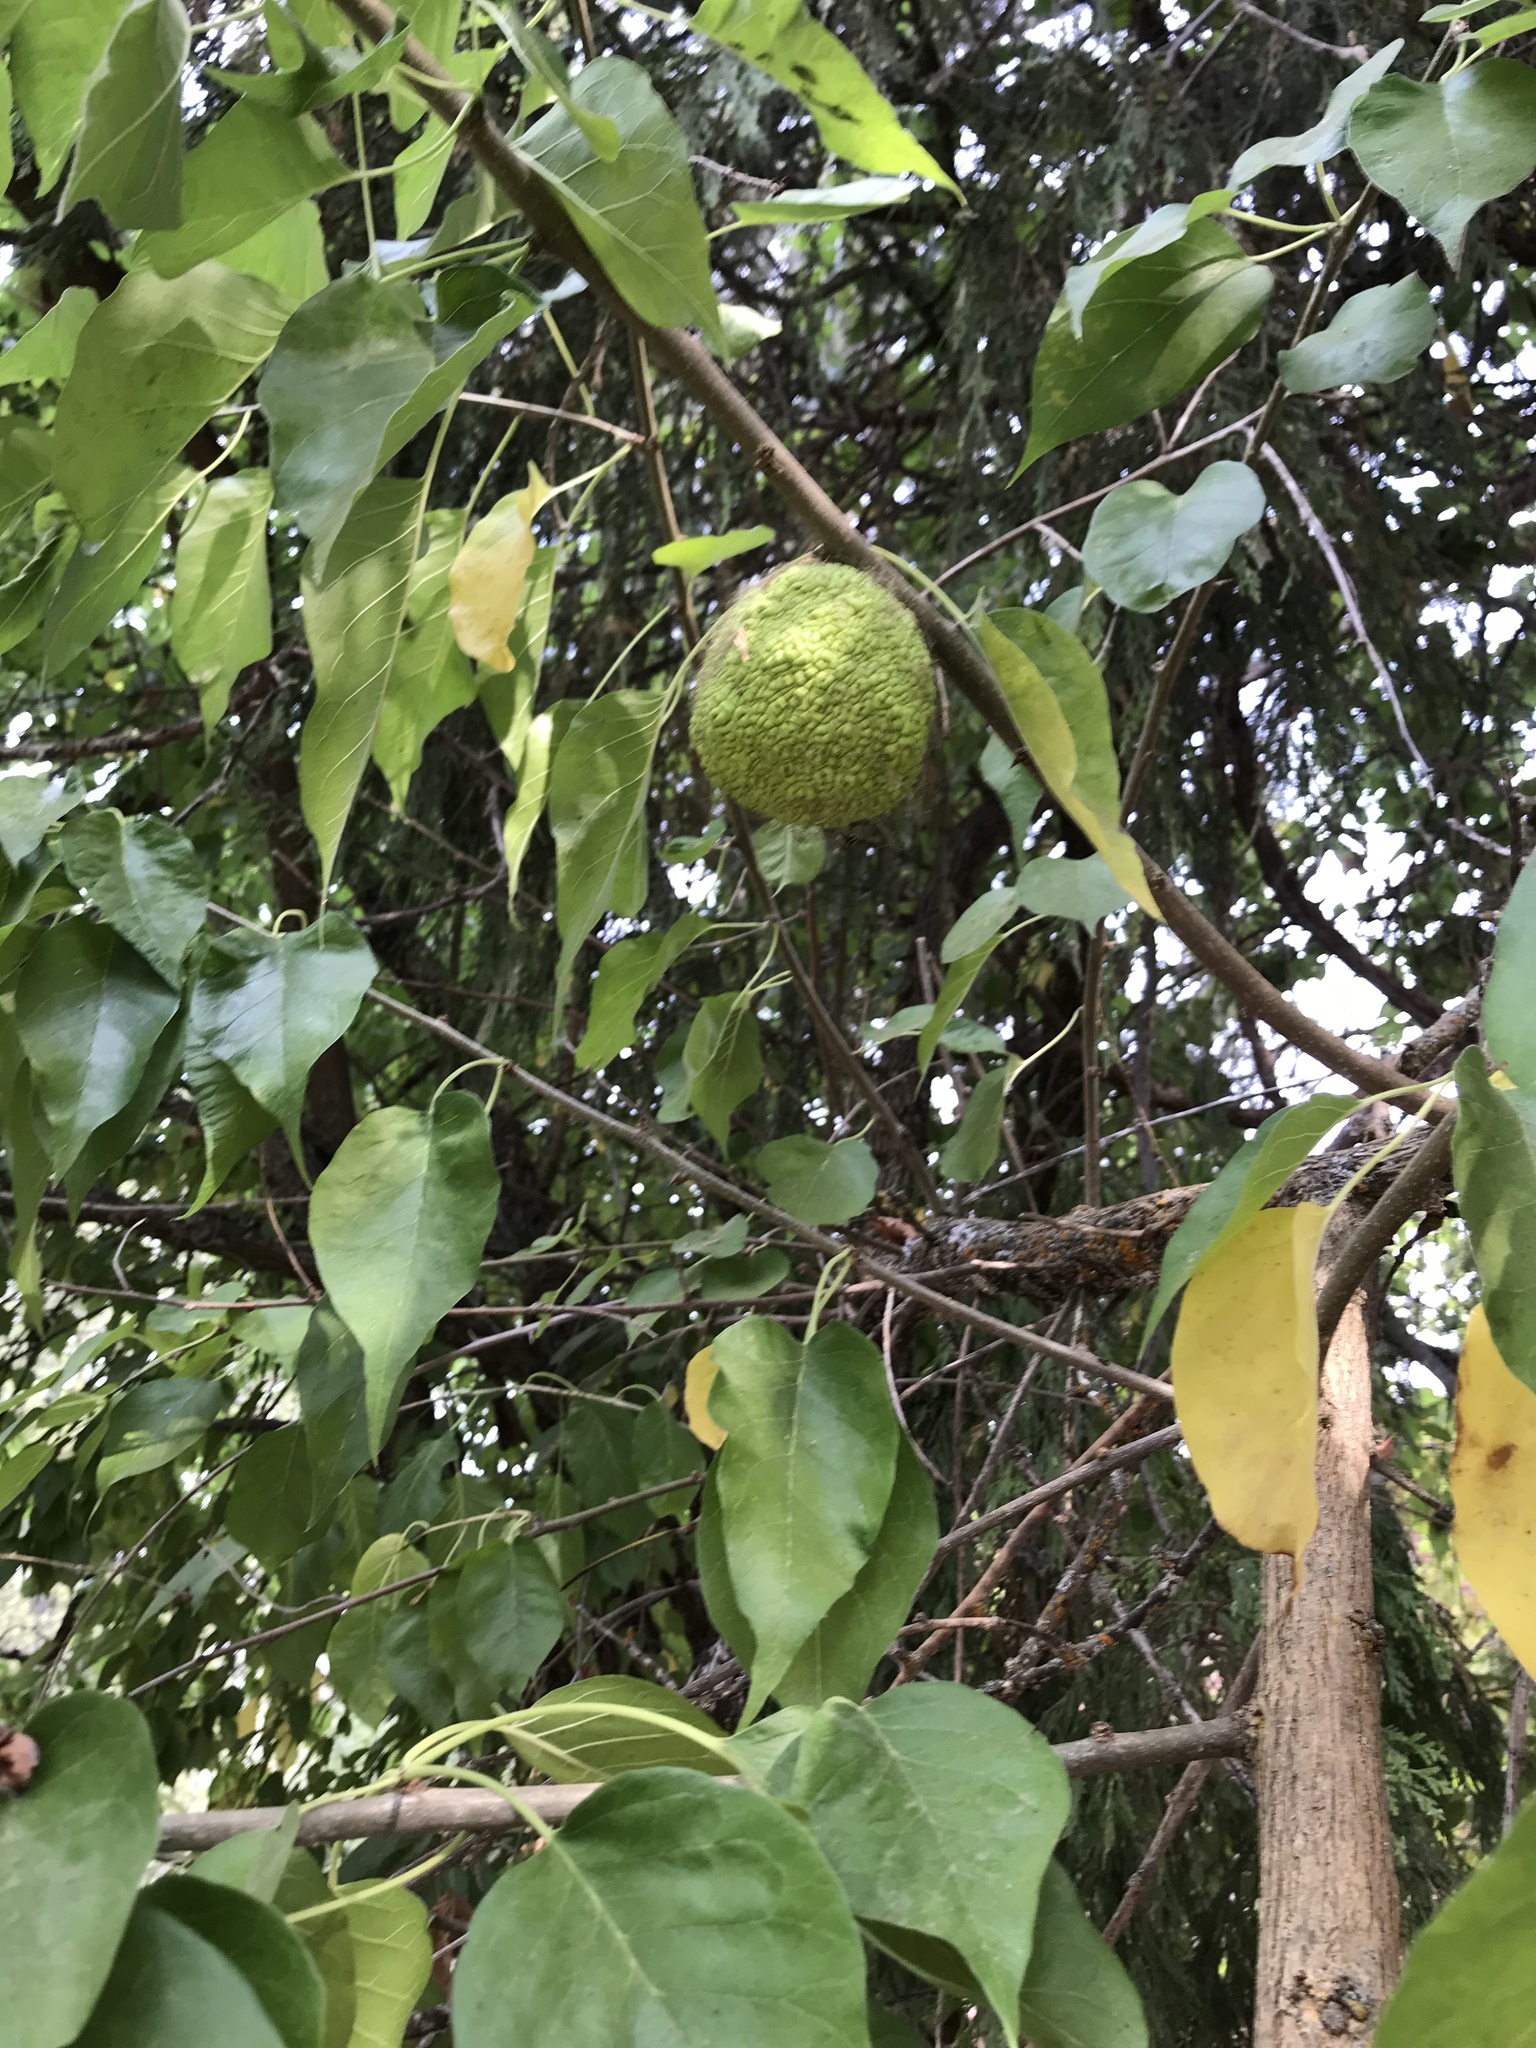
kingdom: Plantae
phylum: Tracheophyta
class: Magnoliopsida
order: Rosales
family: Moraceae
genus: Maclura
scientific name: Maclura pomifera
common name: Osage-orange
